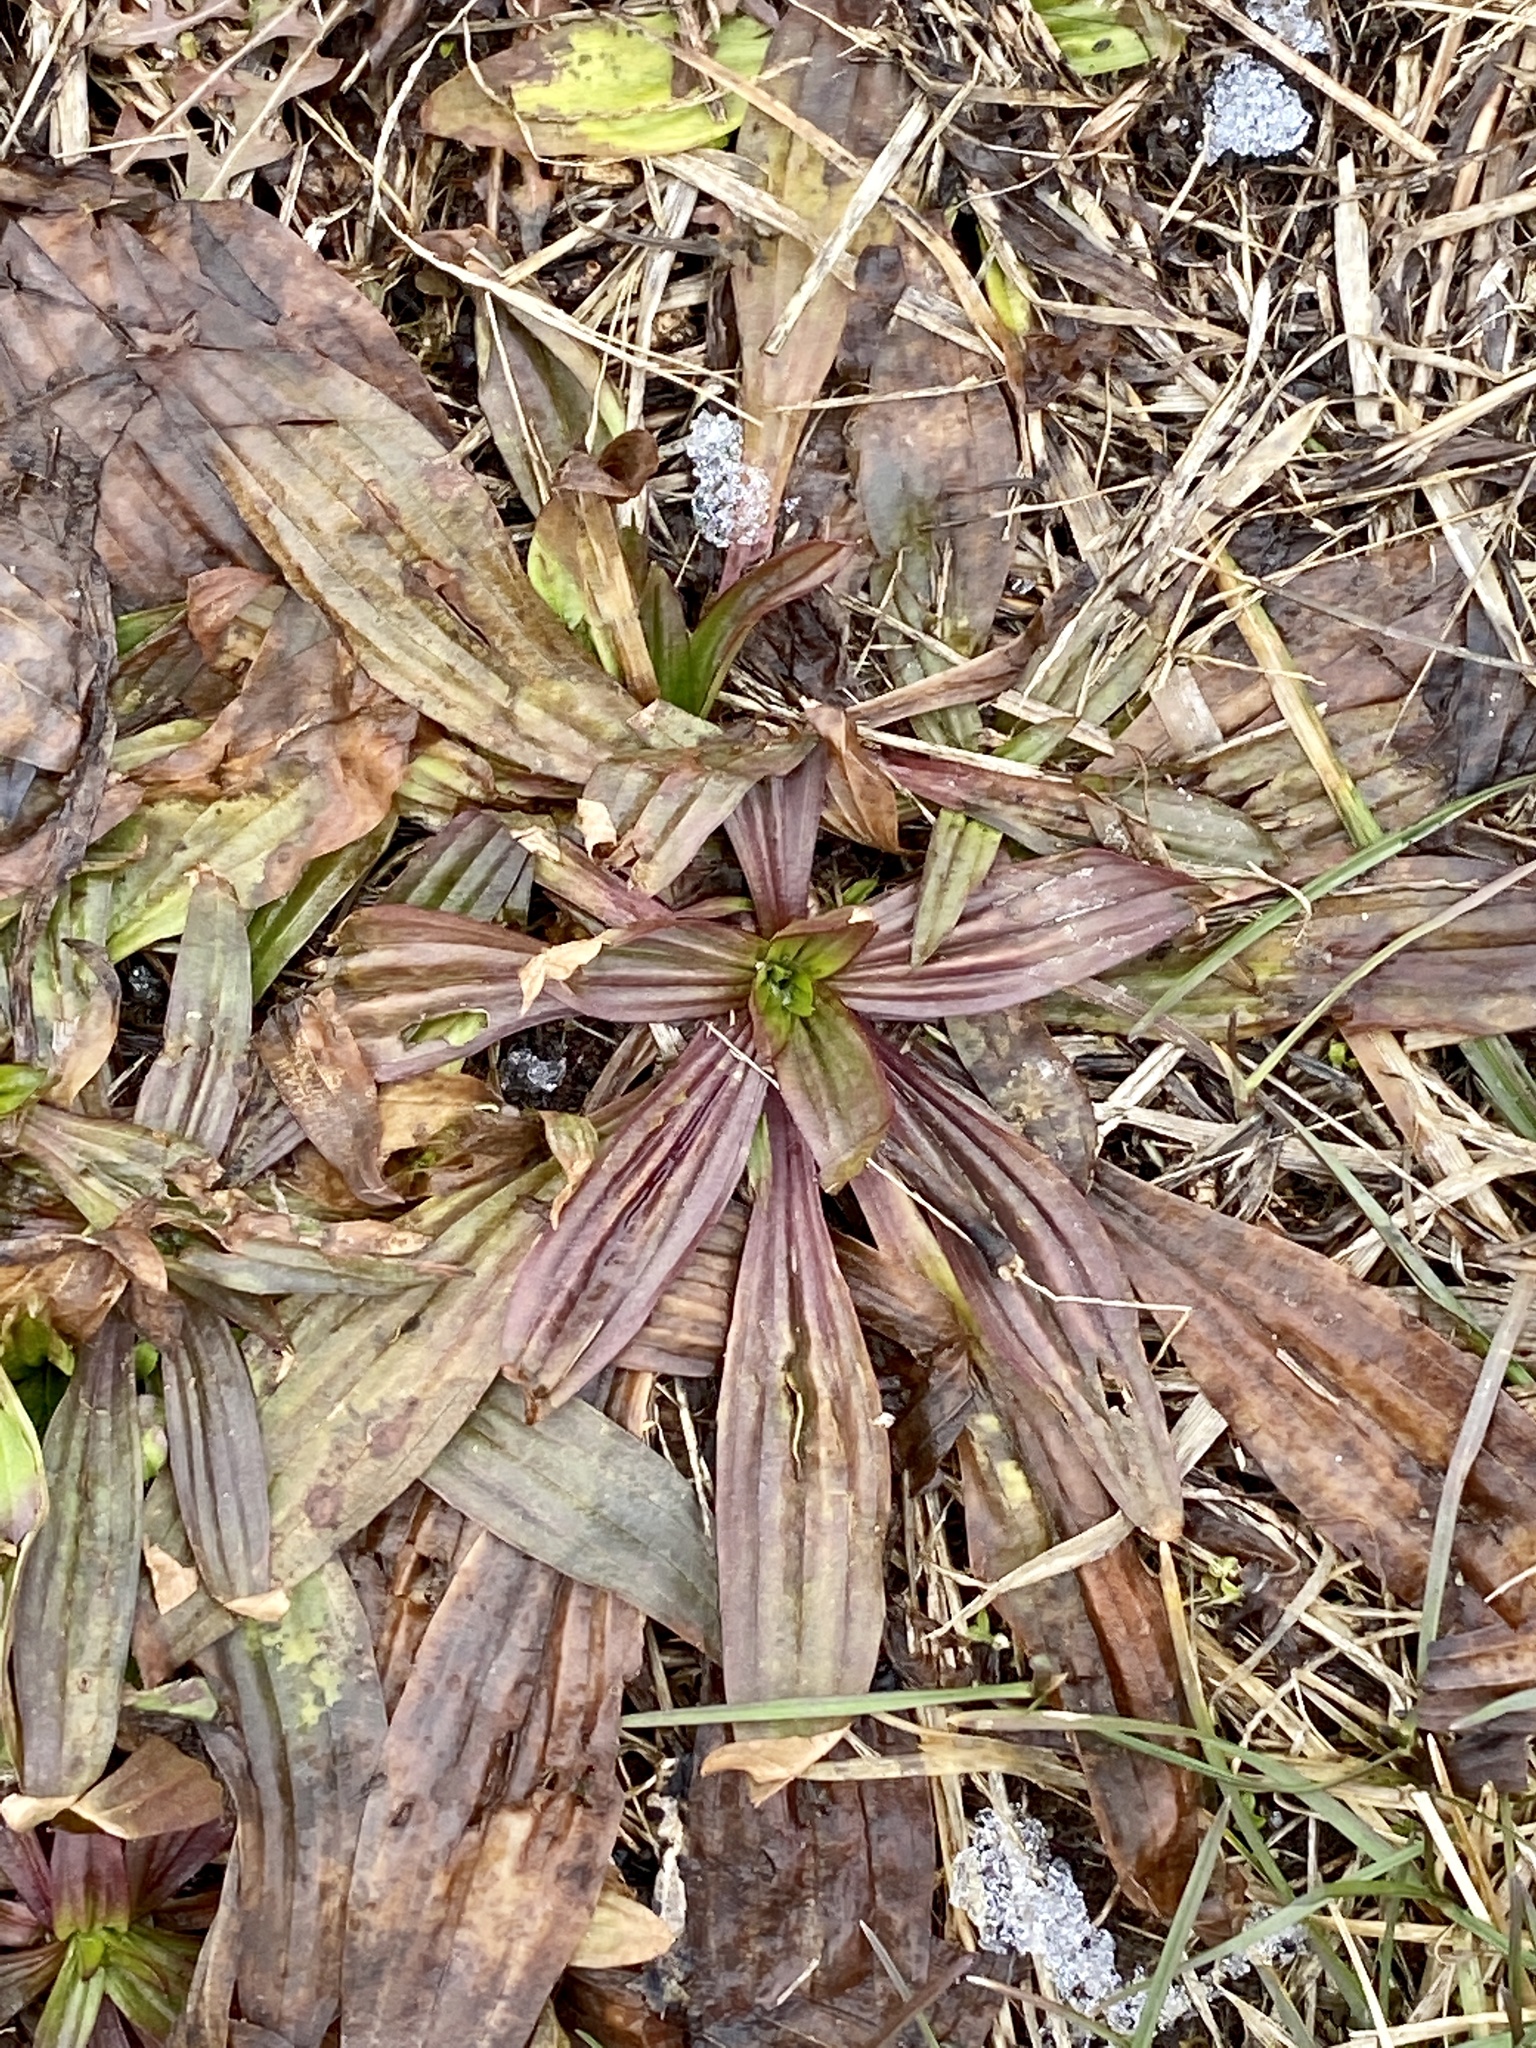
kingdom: Plantae
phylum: Tracheophyta
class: Magnoliopsida
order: Lamiales
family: Plantaginaceae
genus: Plantago
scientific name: Plantago lanceolata
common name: Ribwort plantain
